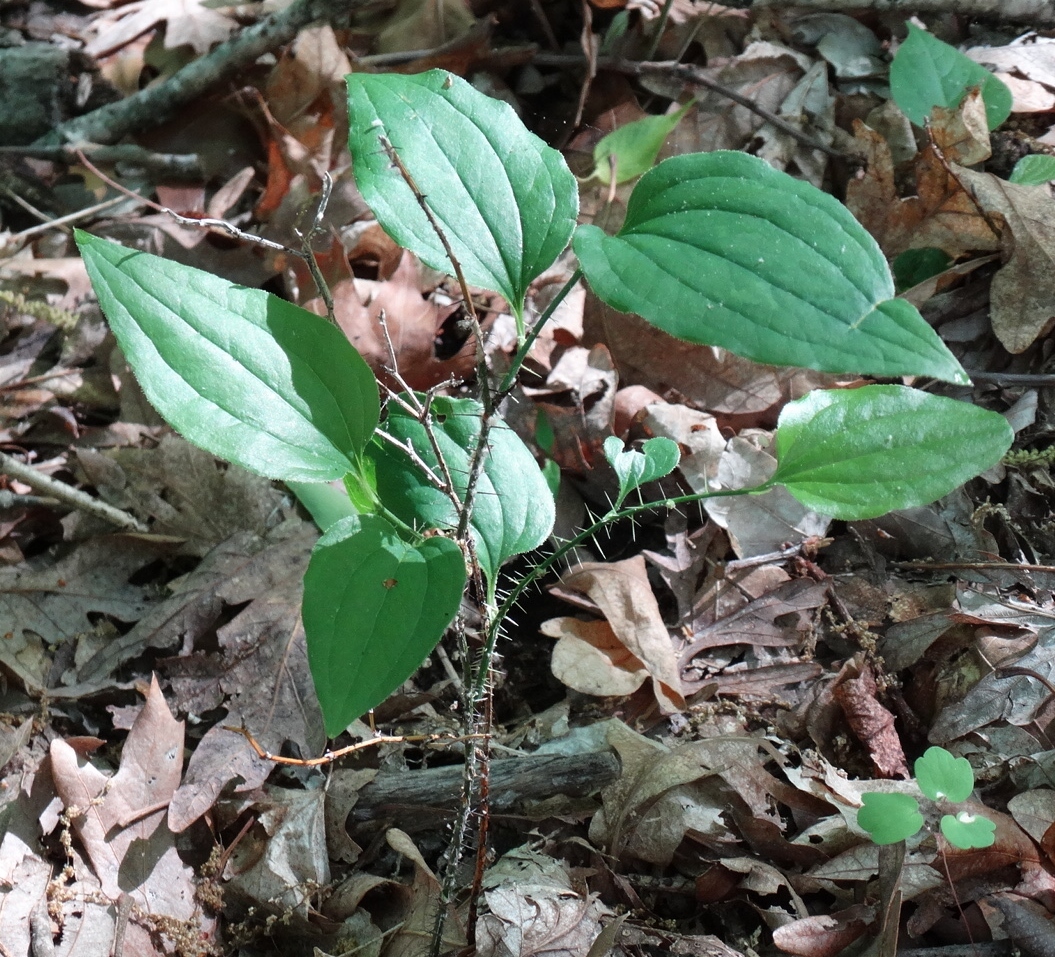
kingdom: Plantae
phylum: Tracheophyta
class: Liliopsida
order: Liliales
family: Smilacaceae
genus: Smilax
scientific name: Smilax tamnoides
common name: Hellfetter
